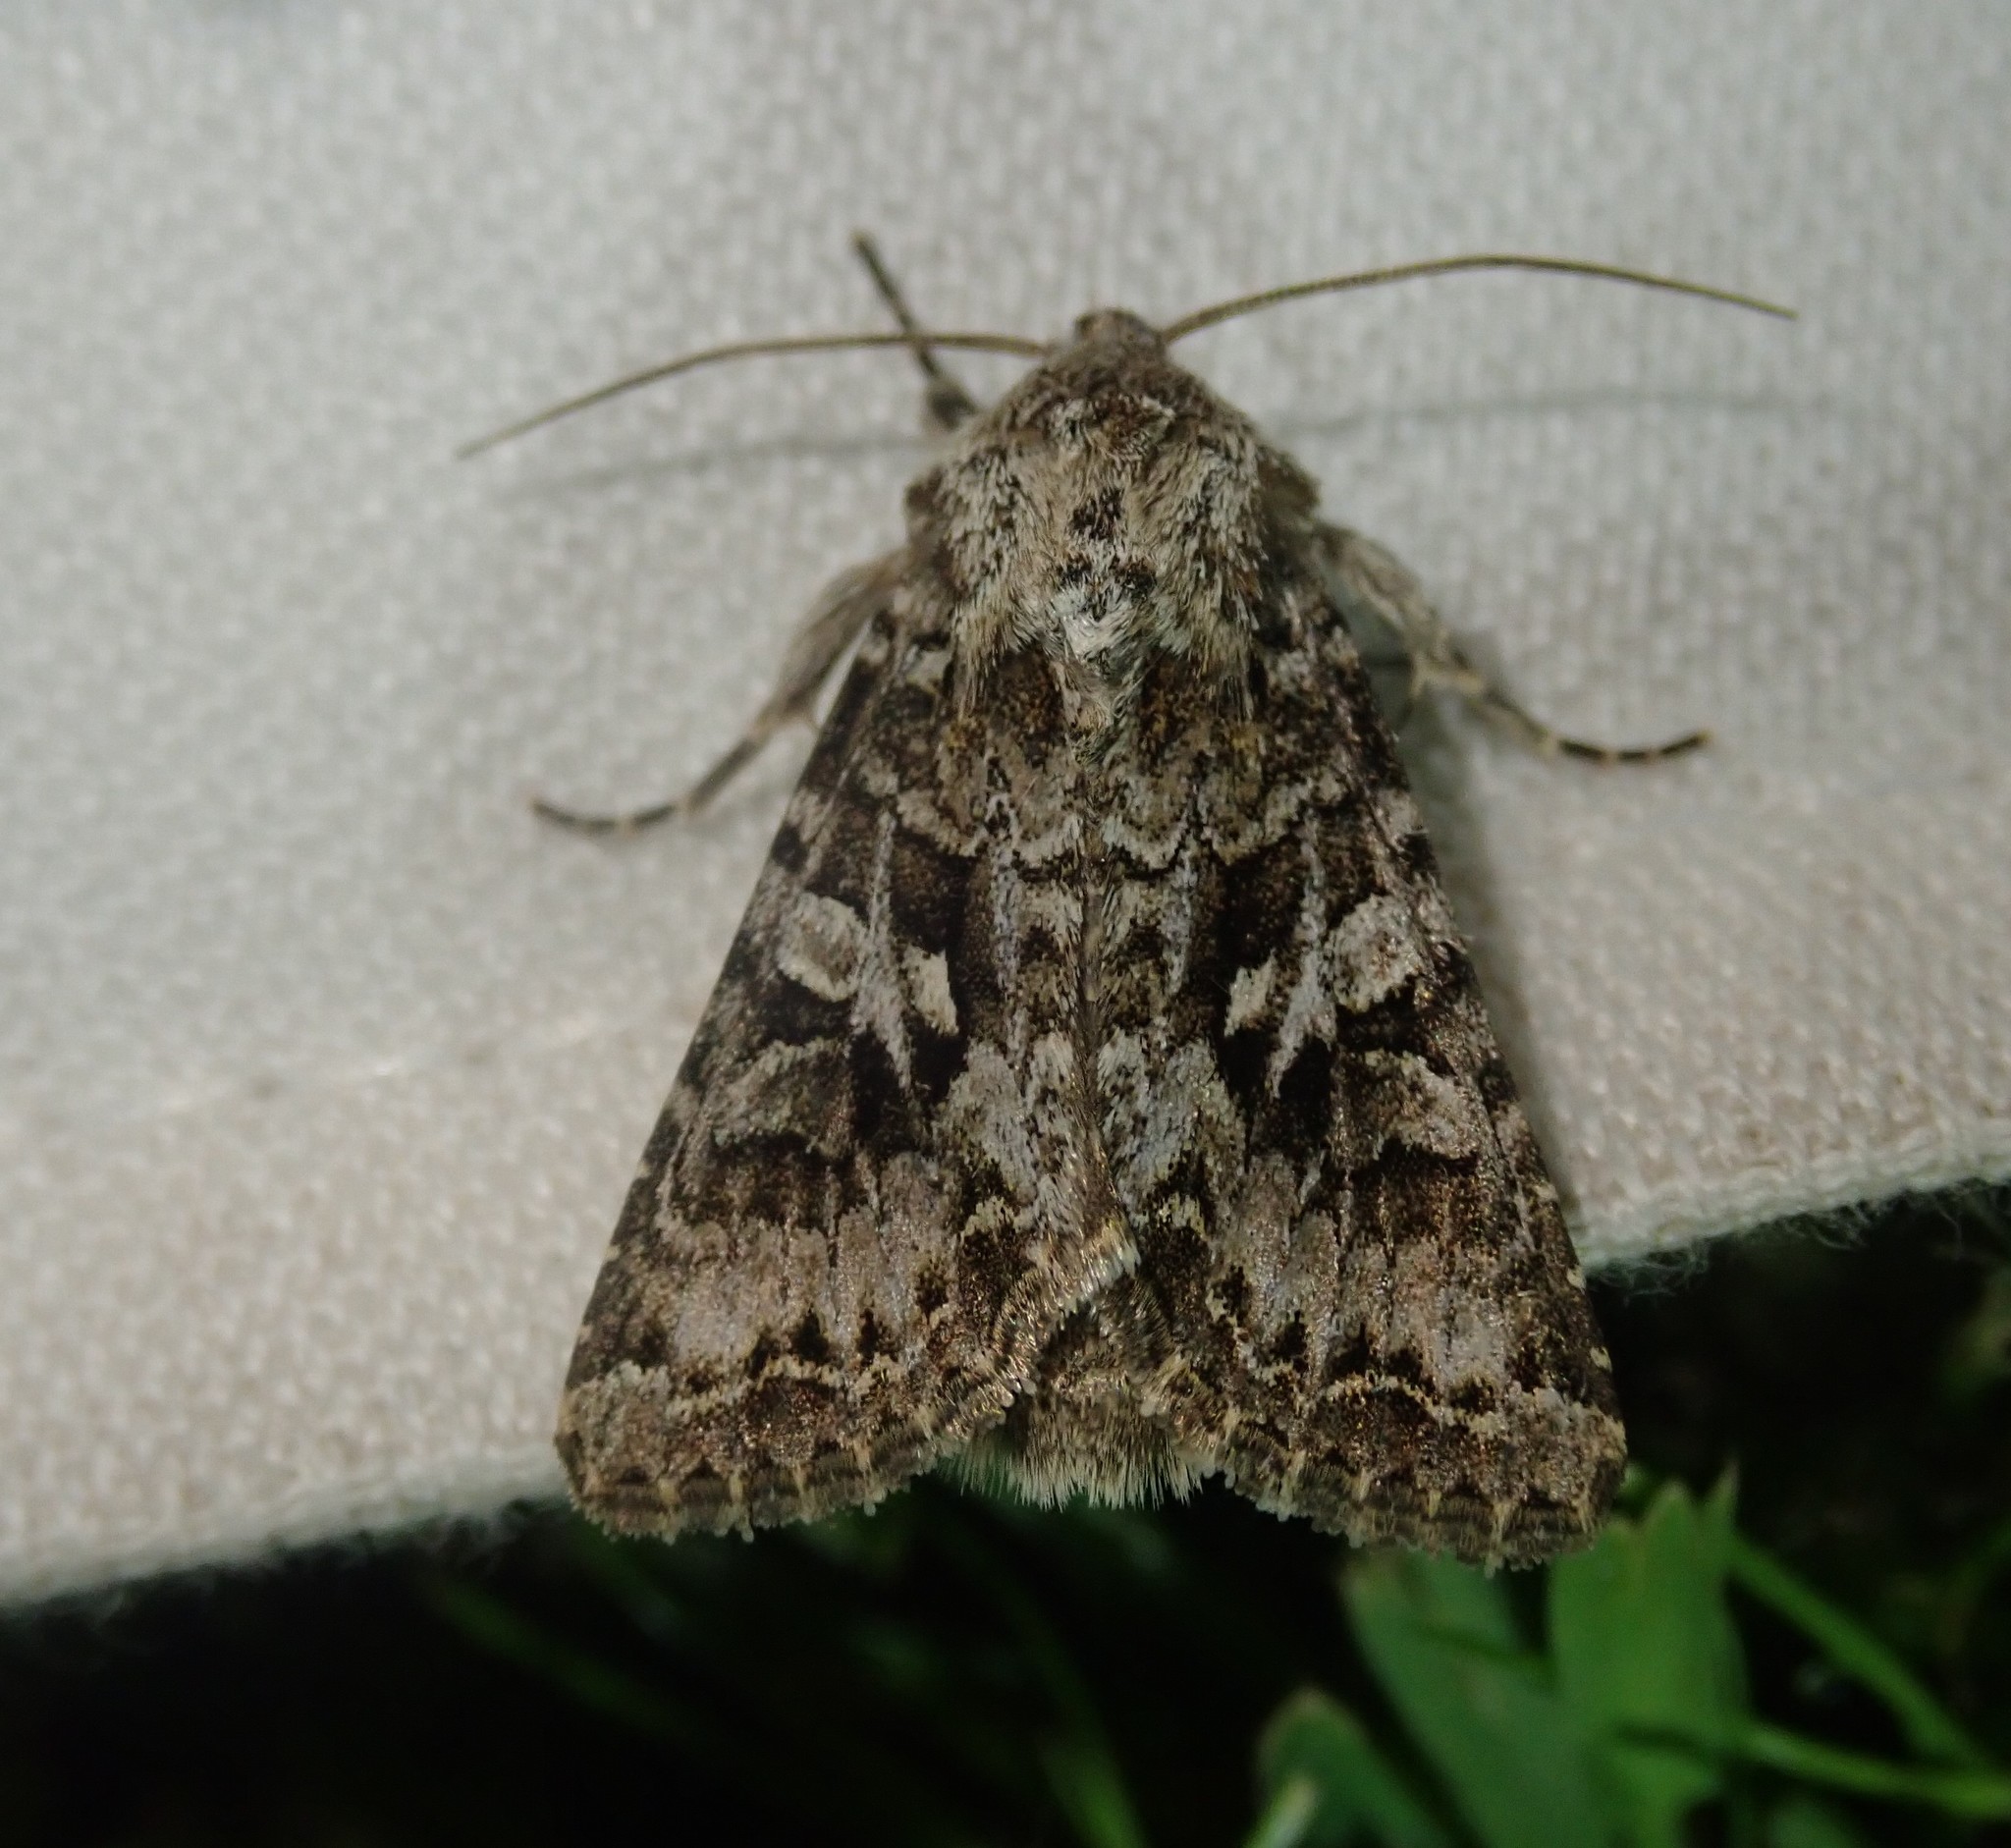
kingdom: Animalia
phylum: Arthropoda
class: Insecta
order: Lepidoptera
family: Noctuidae
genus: Hada
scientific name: Hada plebeja
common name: Shears
